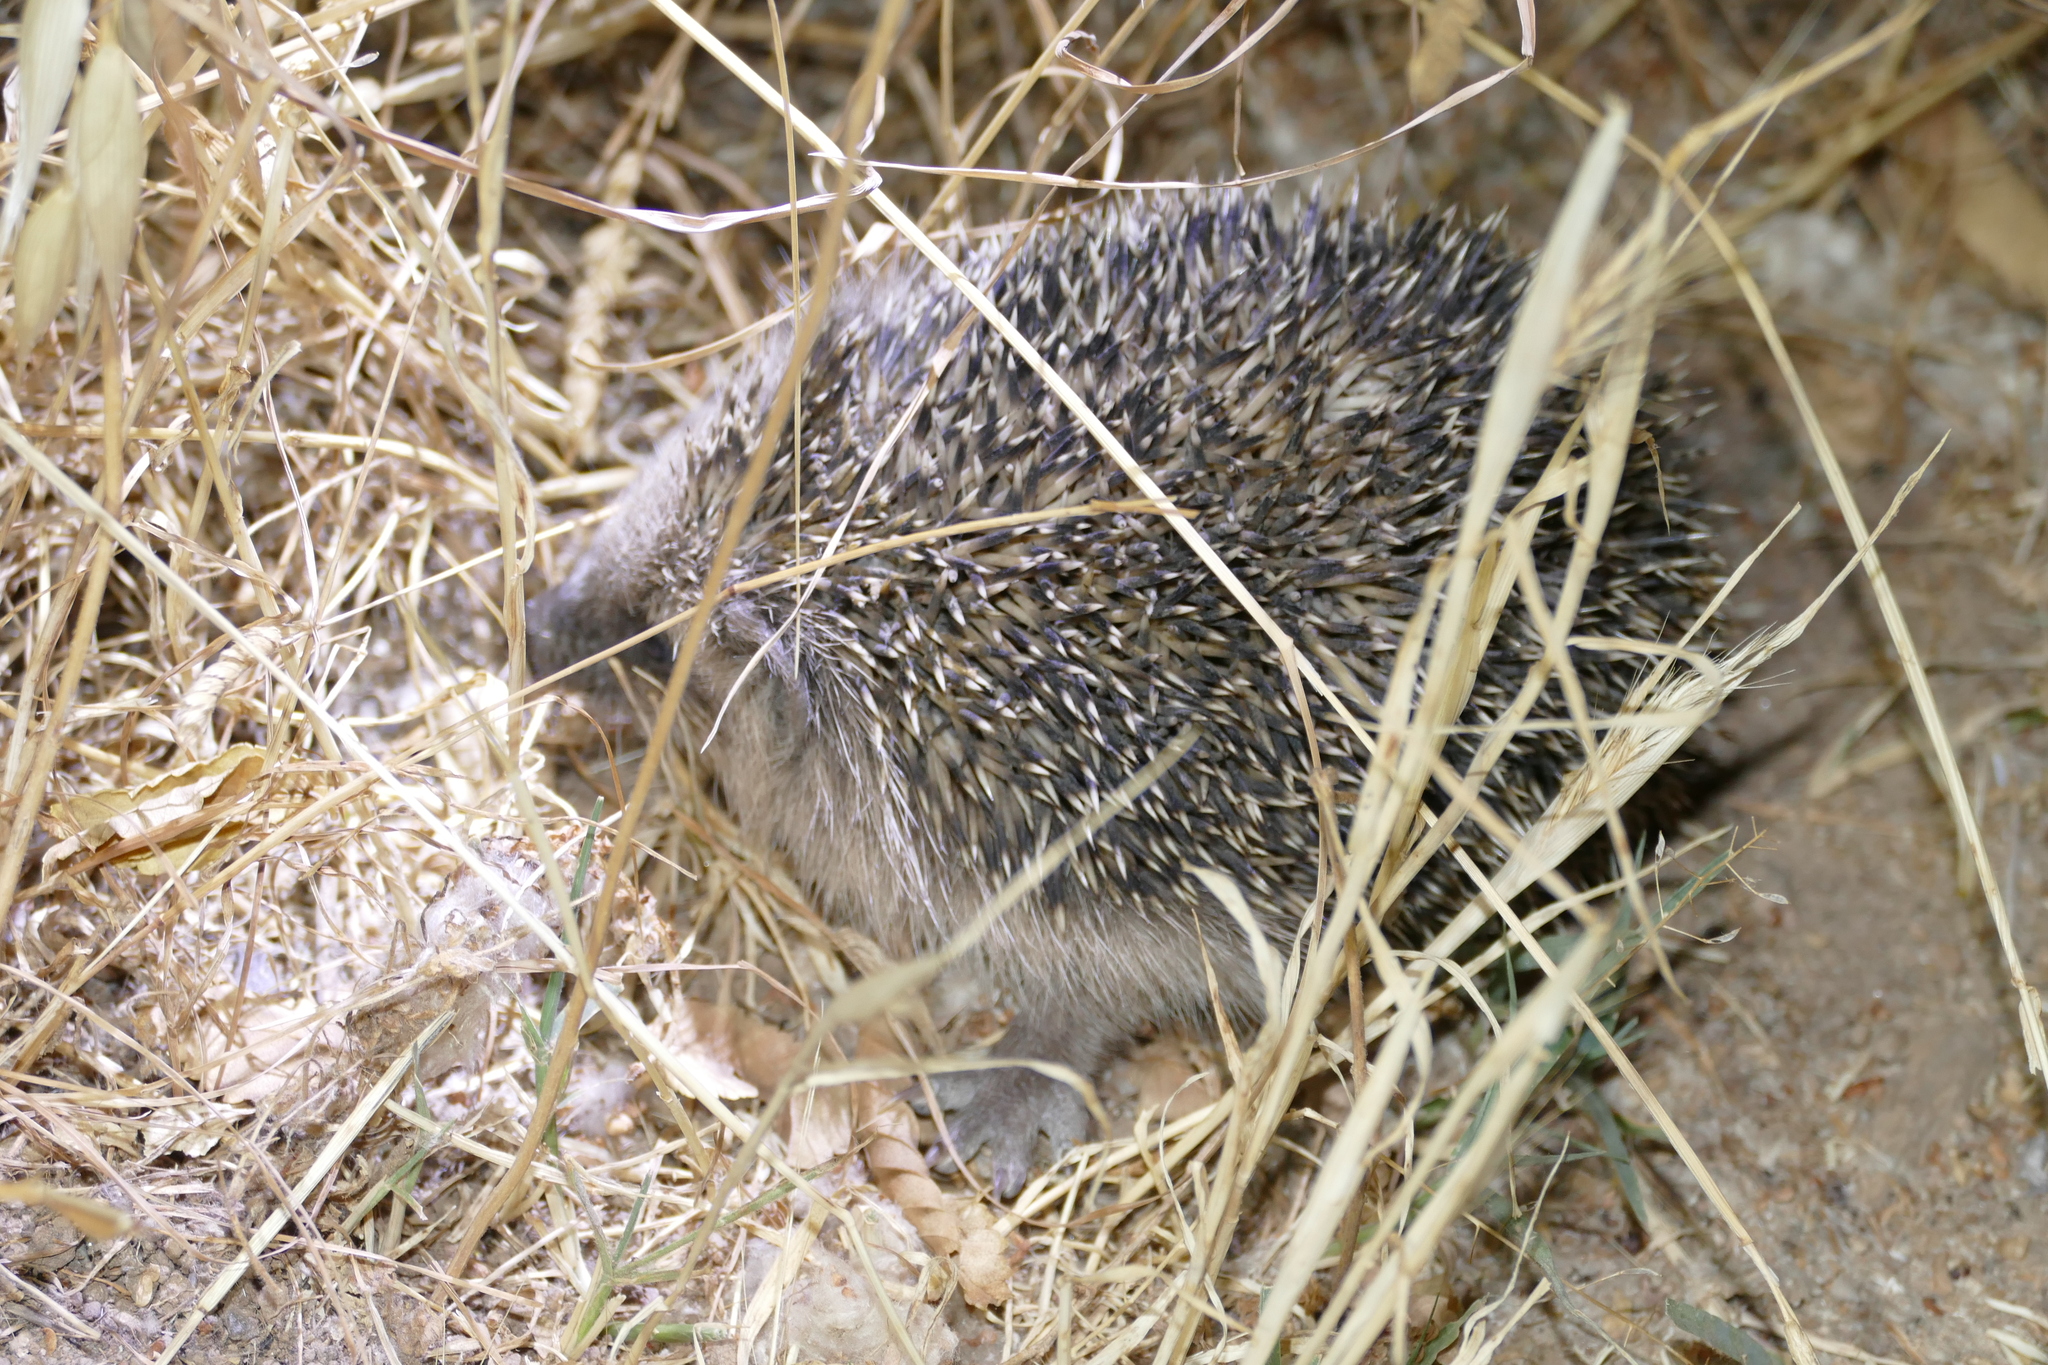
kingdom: Animalia
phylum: Chordata
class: Mammalia
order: Erinaceomorpha
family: Erinaceidae
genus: Erinaceus
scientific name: Erinaceus europaeus
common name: West european hedgehog
